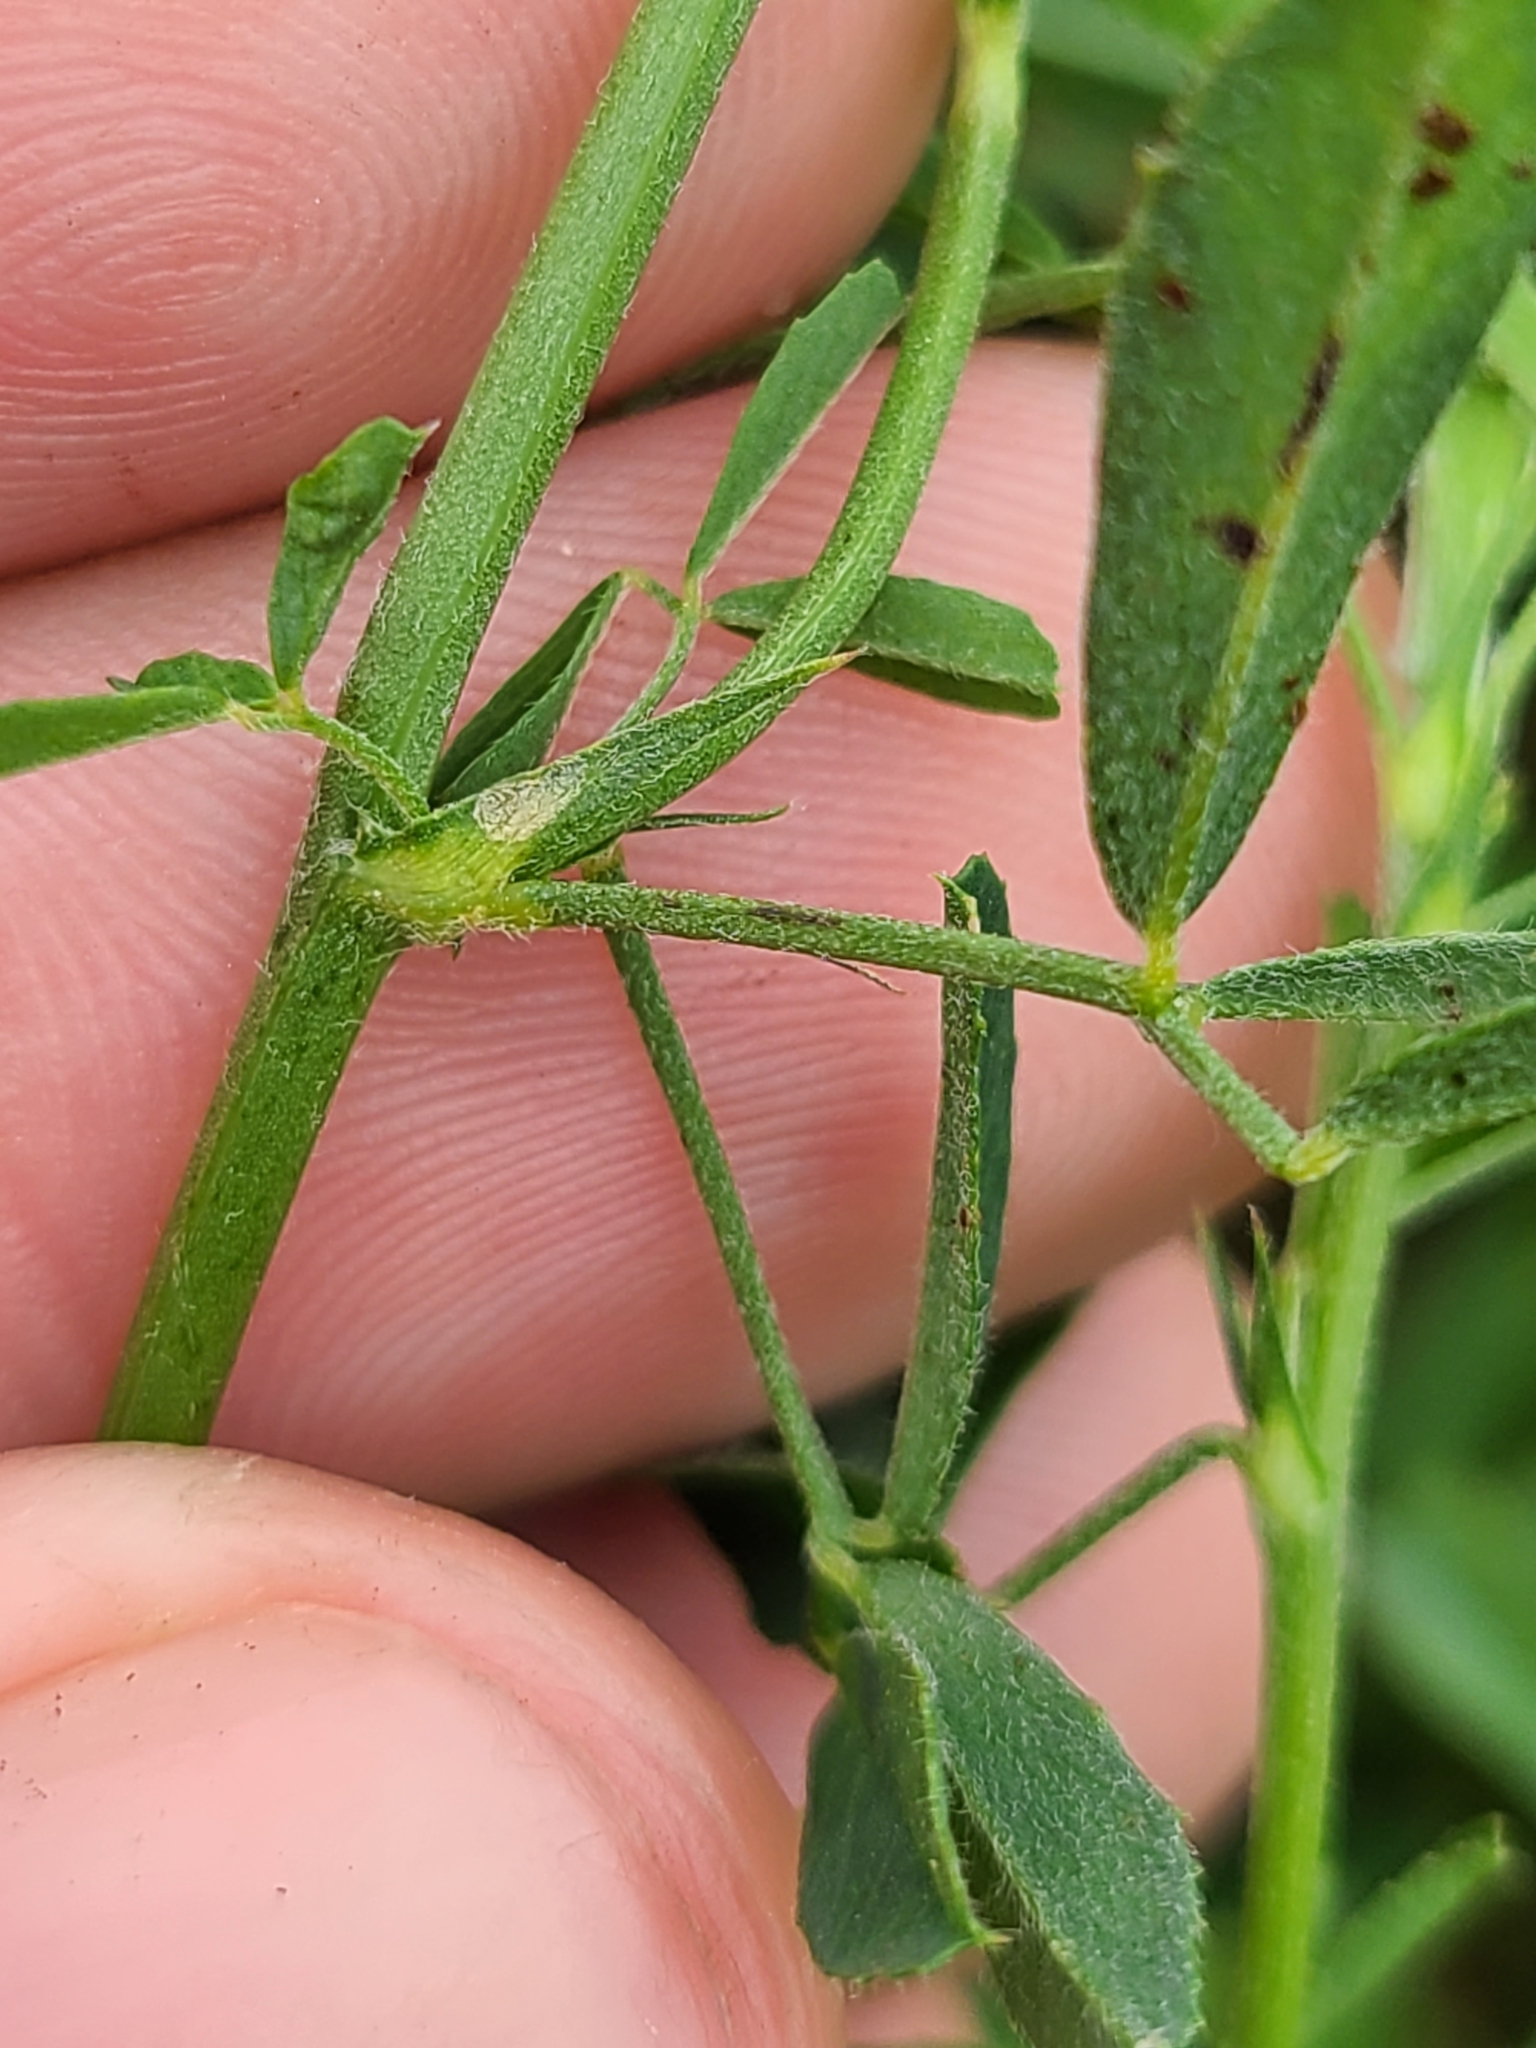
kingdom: Plantae
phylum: Tracheophyta
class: Magnoliopsida
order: Fabales
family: Fabaceae
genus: Medicago
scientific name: Medicago sativa
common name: Alfalfa
